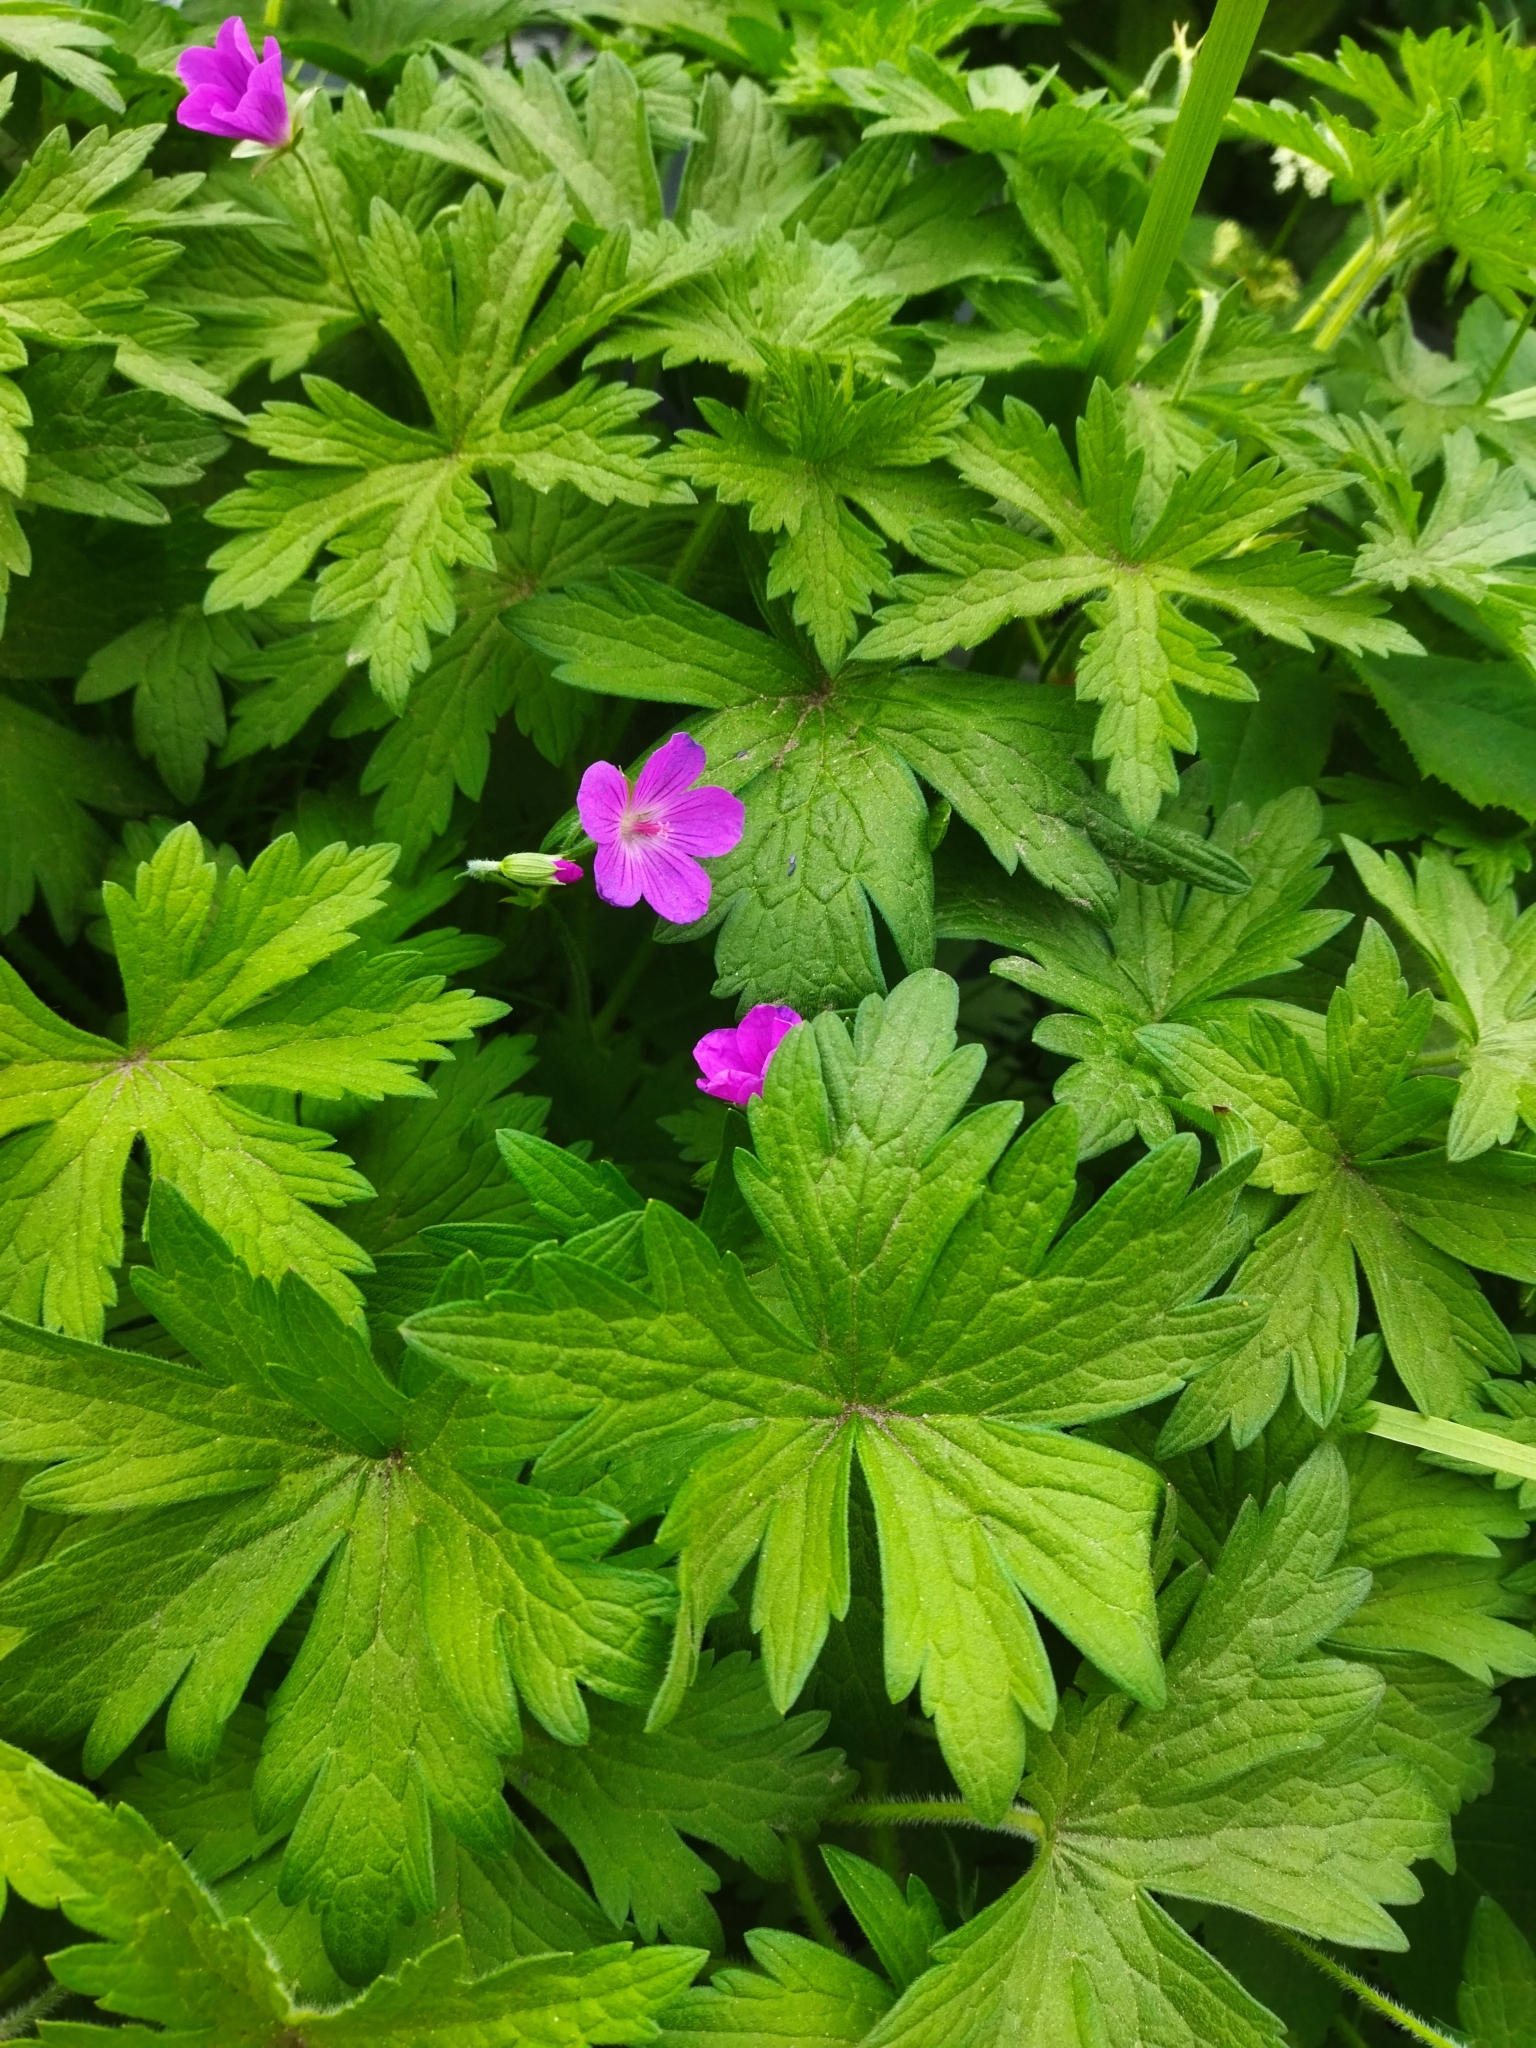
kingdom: Plantae
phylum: Tracheophyta
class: Magnoliopsida
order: Geraniales
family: Geraniaceae
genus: Geranium
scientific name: Geranium palustre
